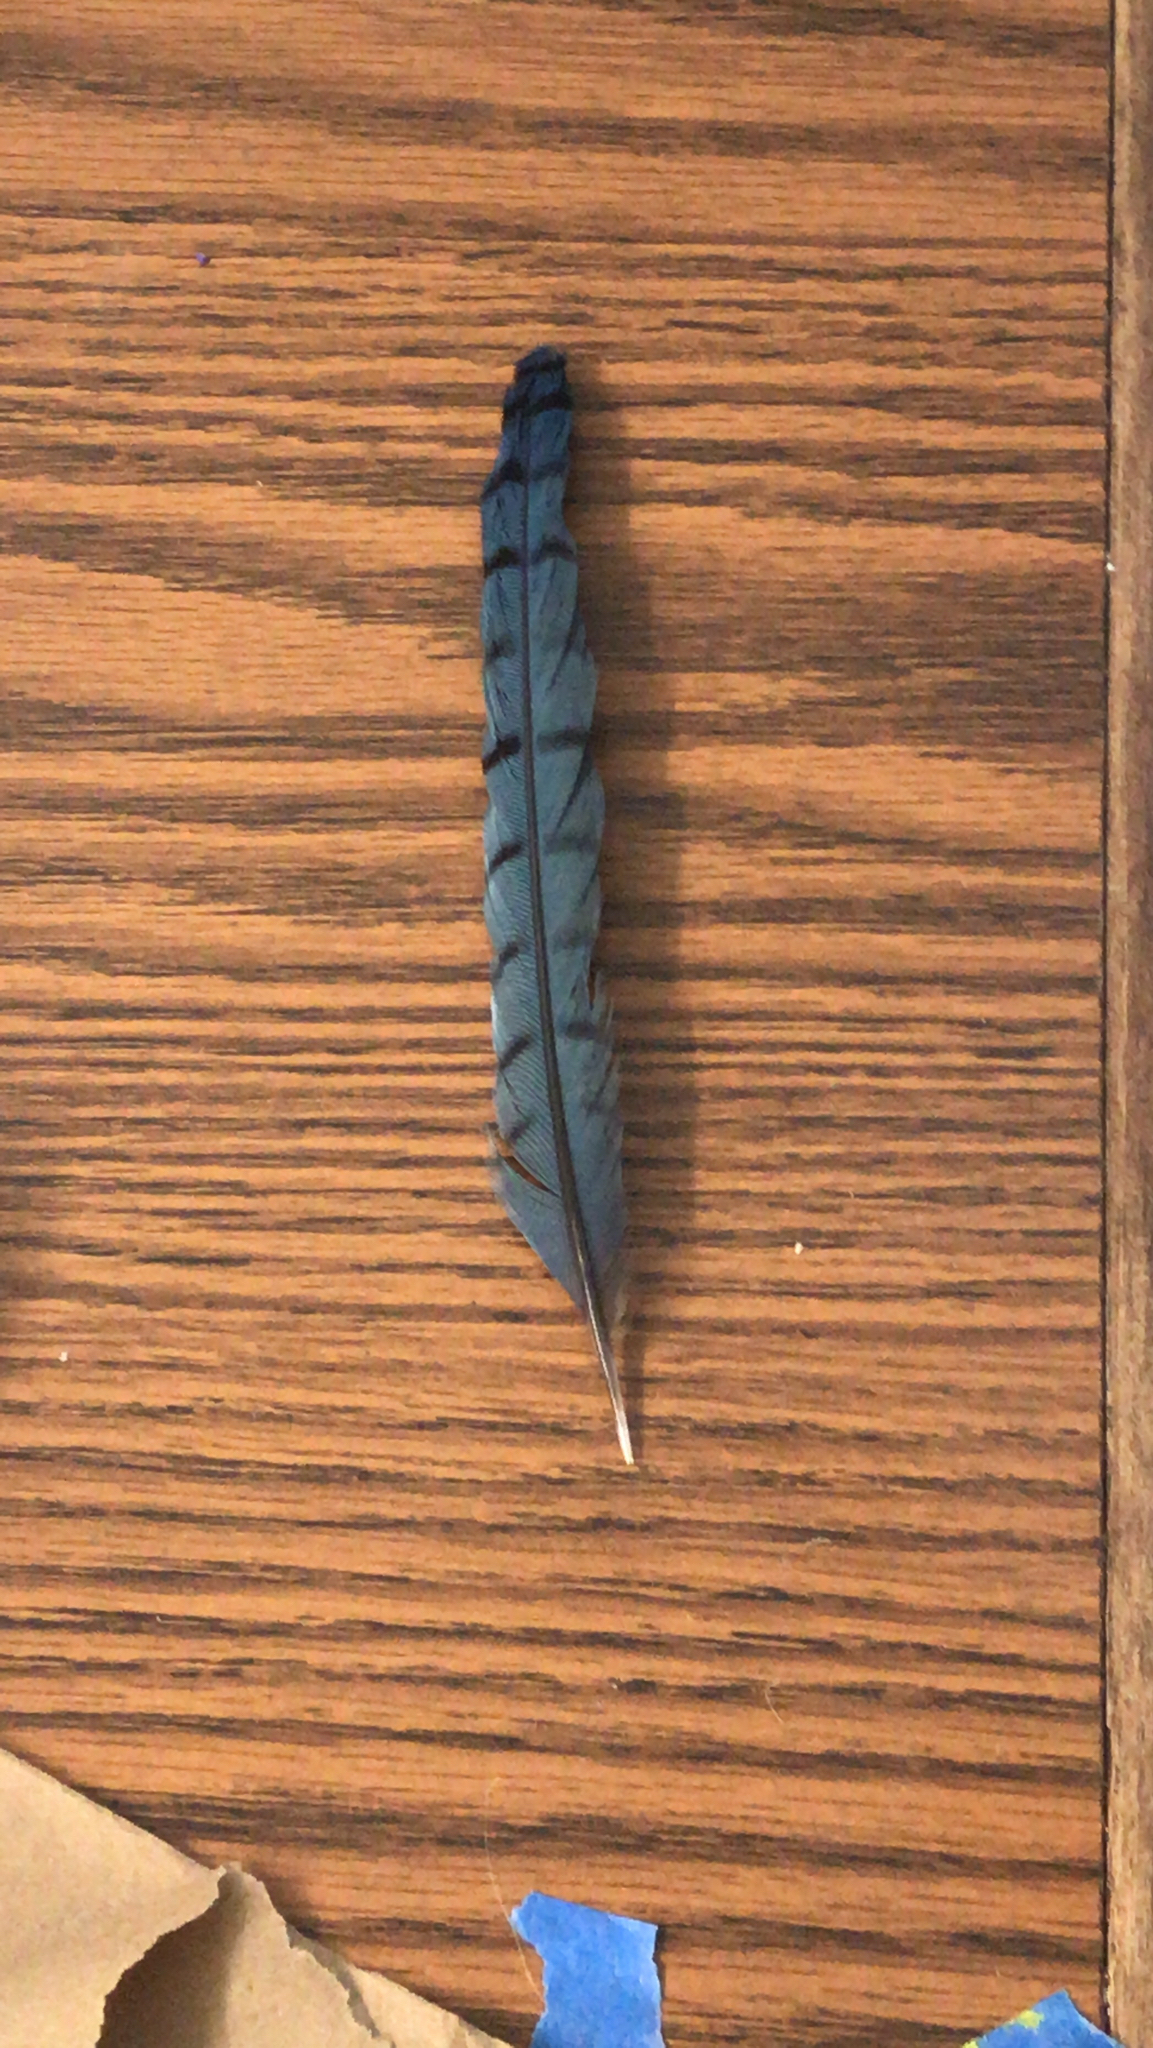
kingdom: Animalia
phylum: Chordata
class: Aves
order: Passeriformes
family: Corvidae
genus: Cyanocitta
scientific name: Cyanocitta cristata
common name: Blue jay
